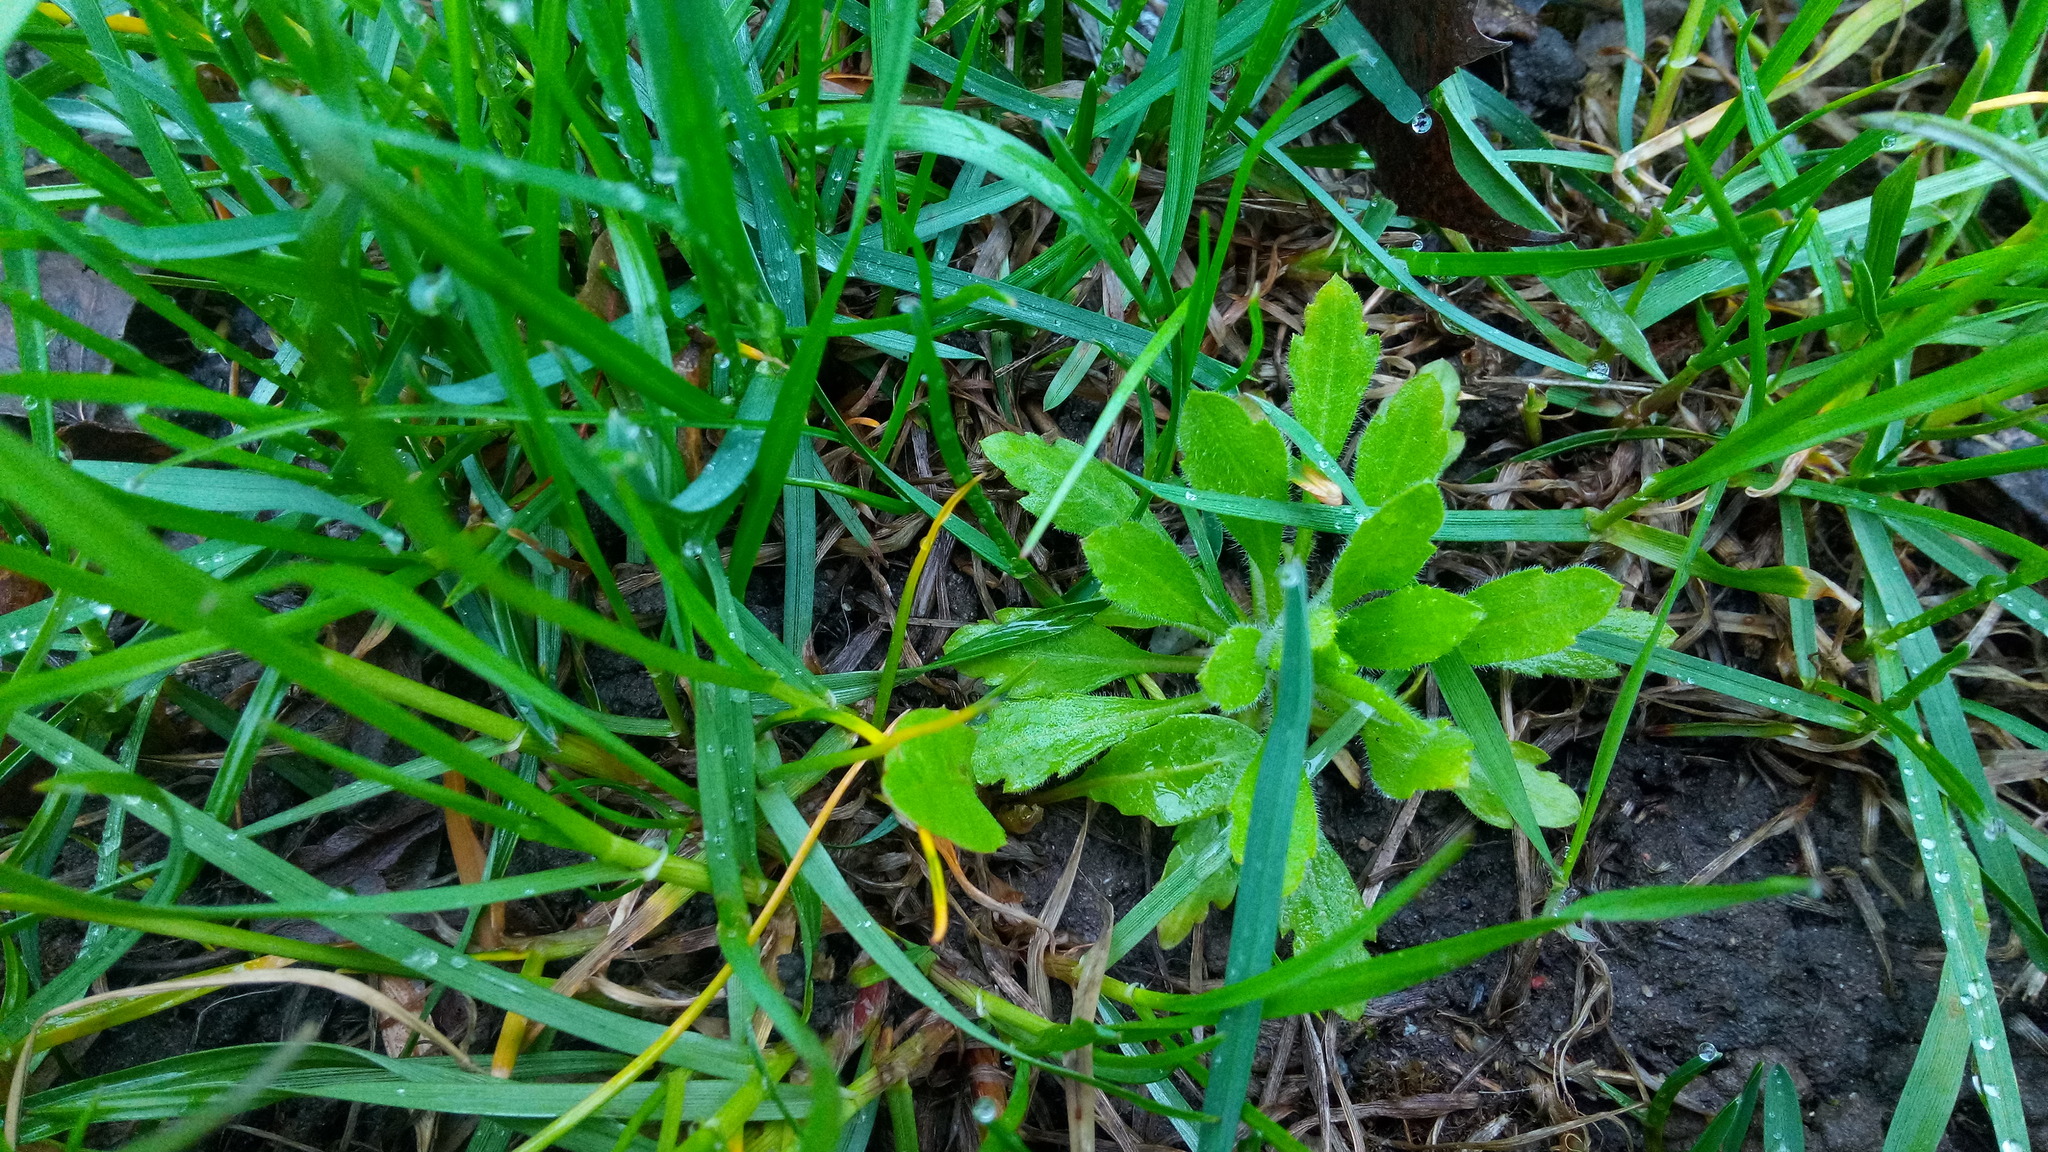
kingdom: Plantae
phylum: Tracheophyta
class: Magnoliopsida
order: Asterales
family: Asteraceae
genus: Erigeron
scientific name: Erigeron canadensis
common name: Canadian fleabane
